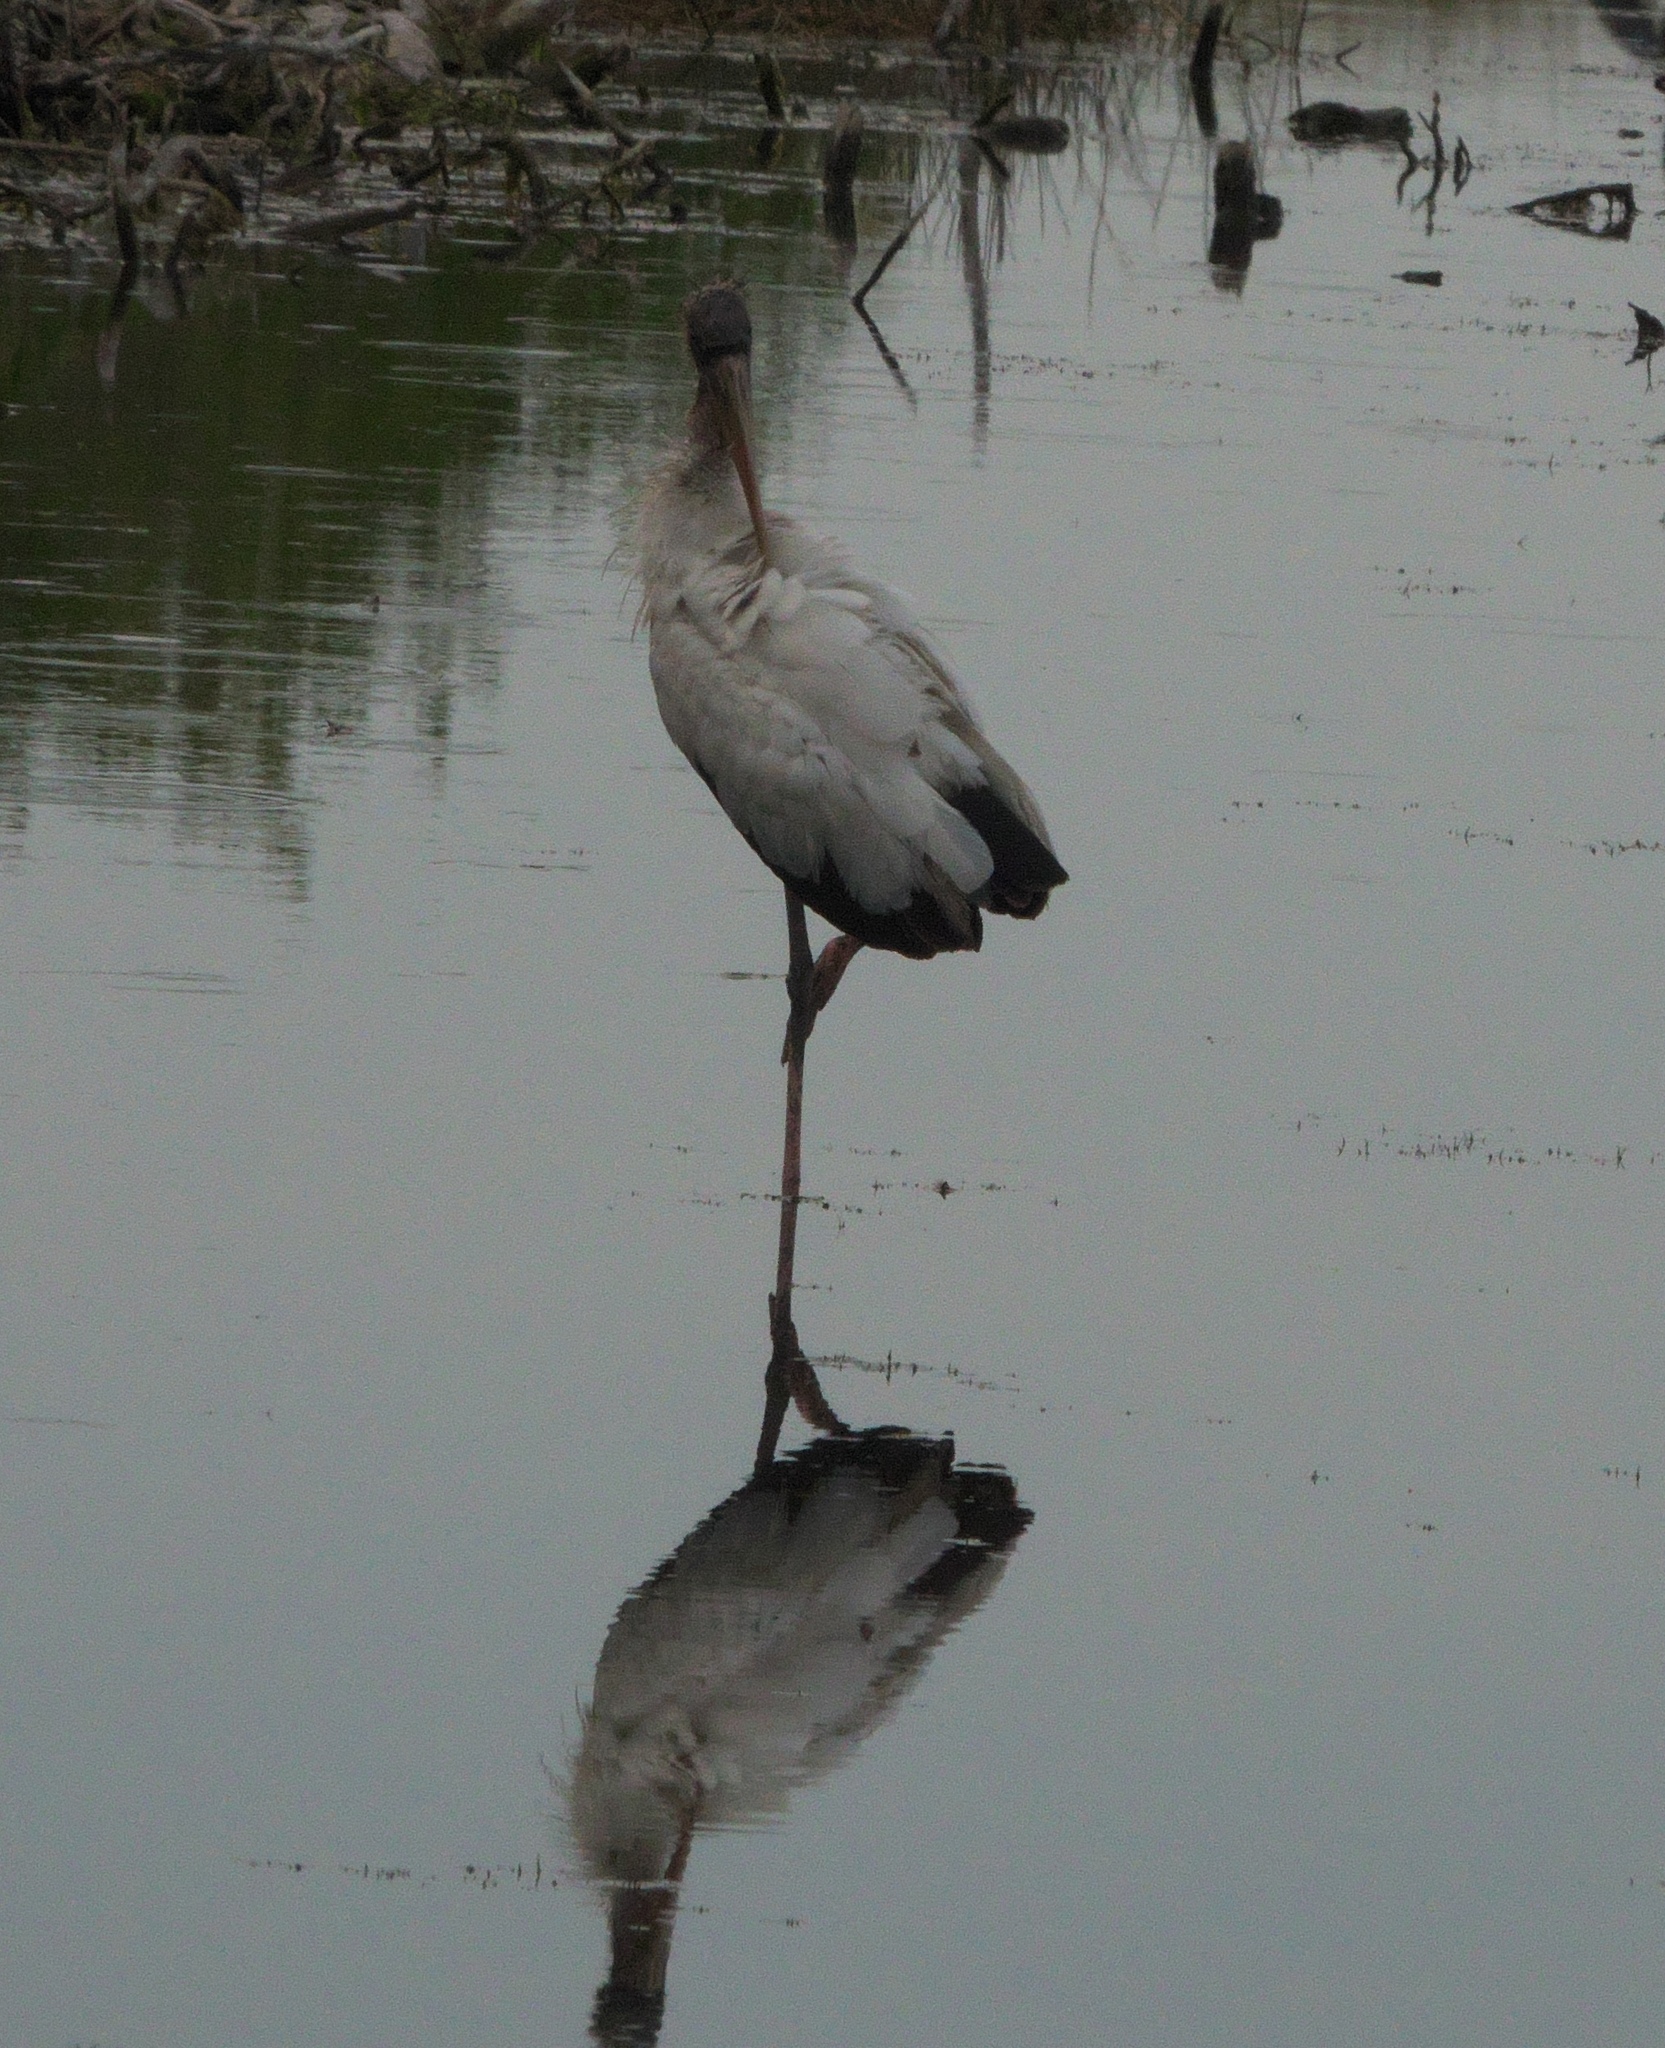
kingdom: Animalia
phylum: Chordata
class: Aves
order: Ciconiiformes
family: Ciconiidae
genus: Mycteria
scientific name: Mycteria americana
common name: Wood stork
